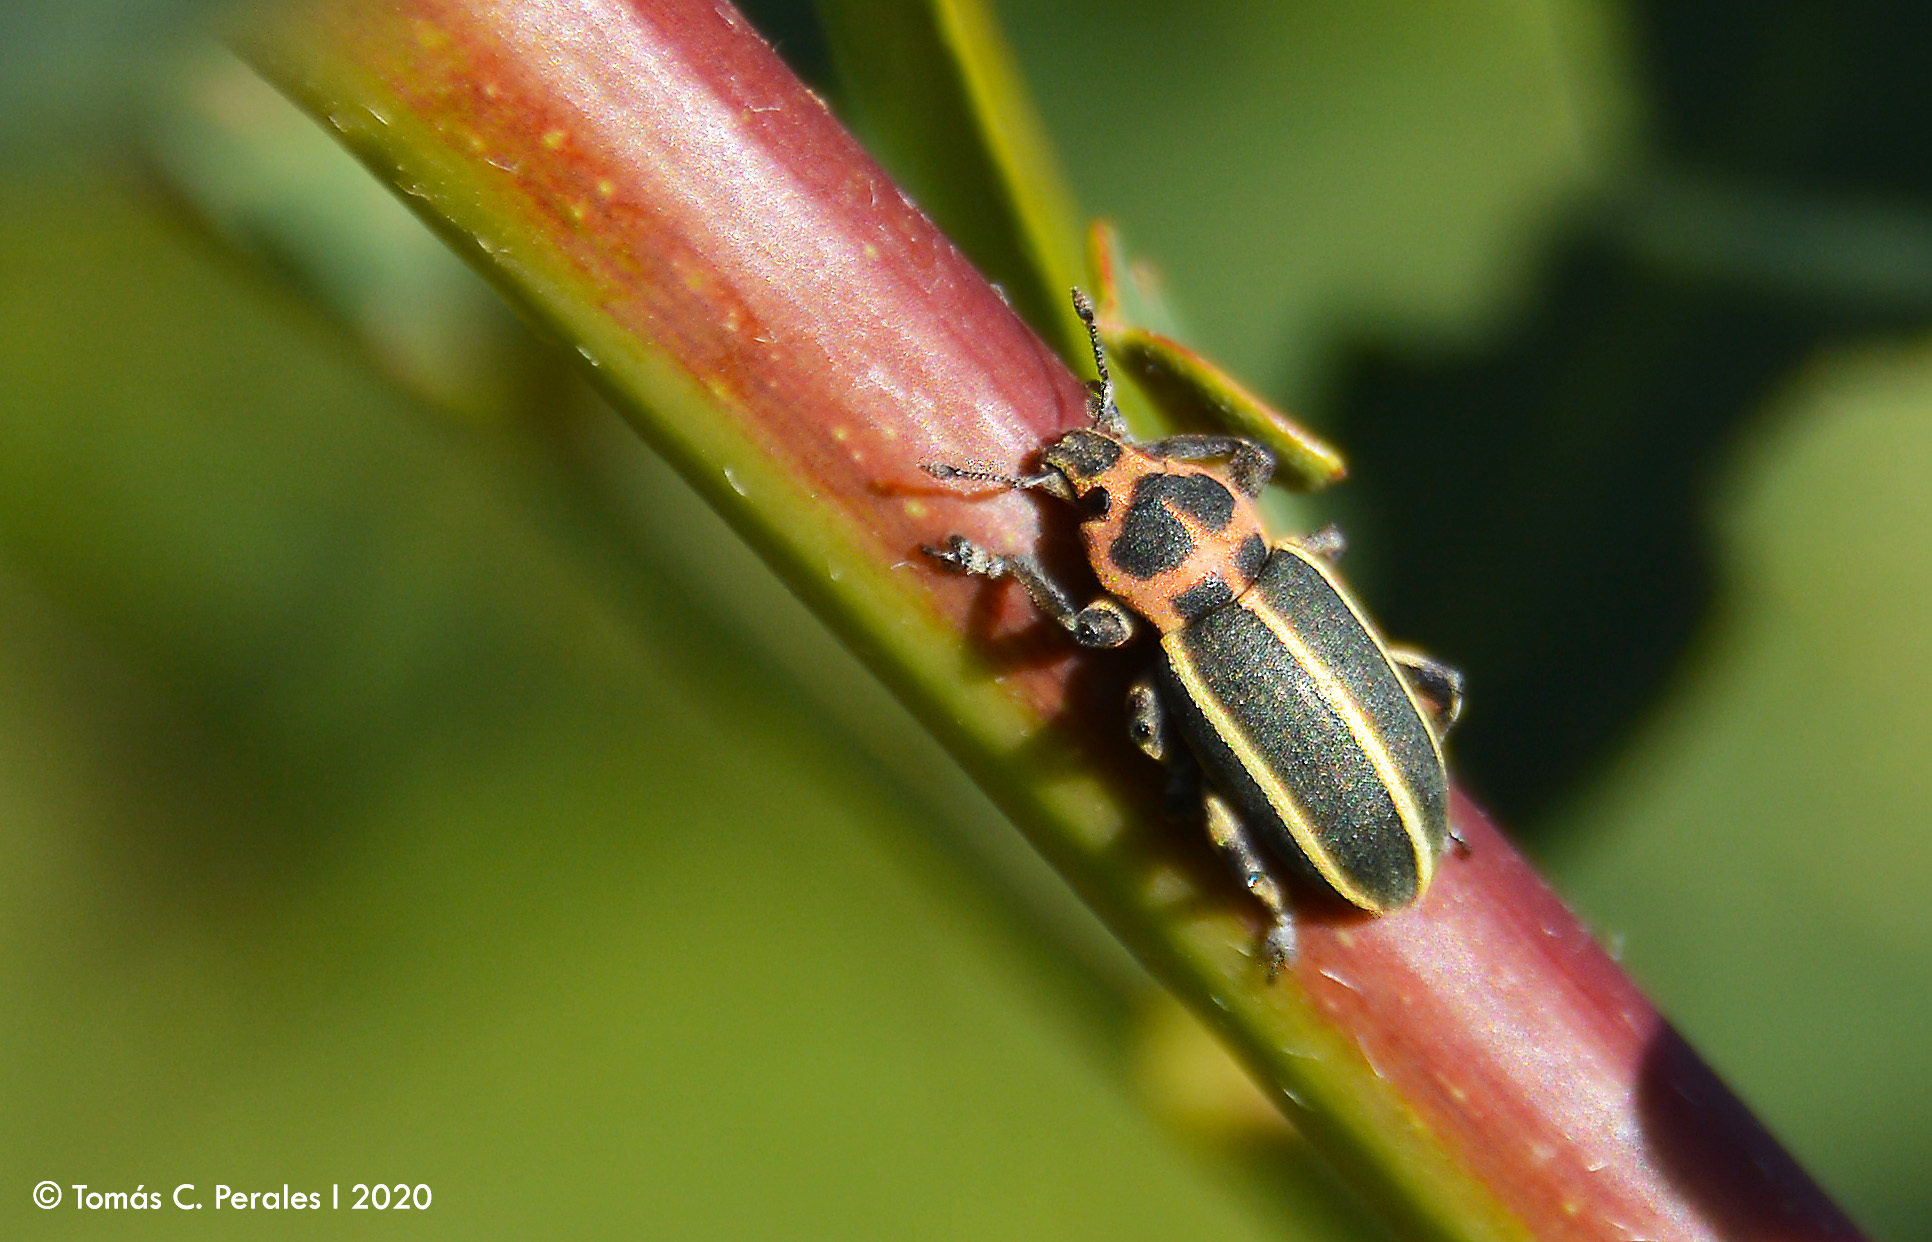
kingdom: Animalia
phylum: Arthropoda
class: Insecta
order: Coleoptera
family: Curculionidae
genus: Eudiagogus
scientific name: Eudiagogus episcopalis
